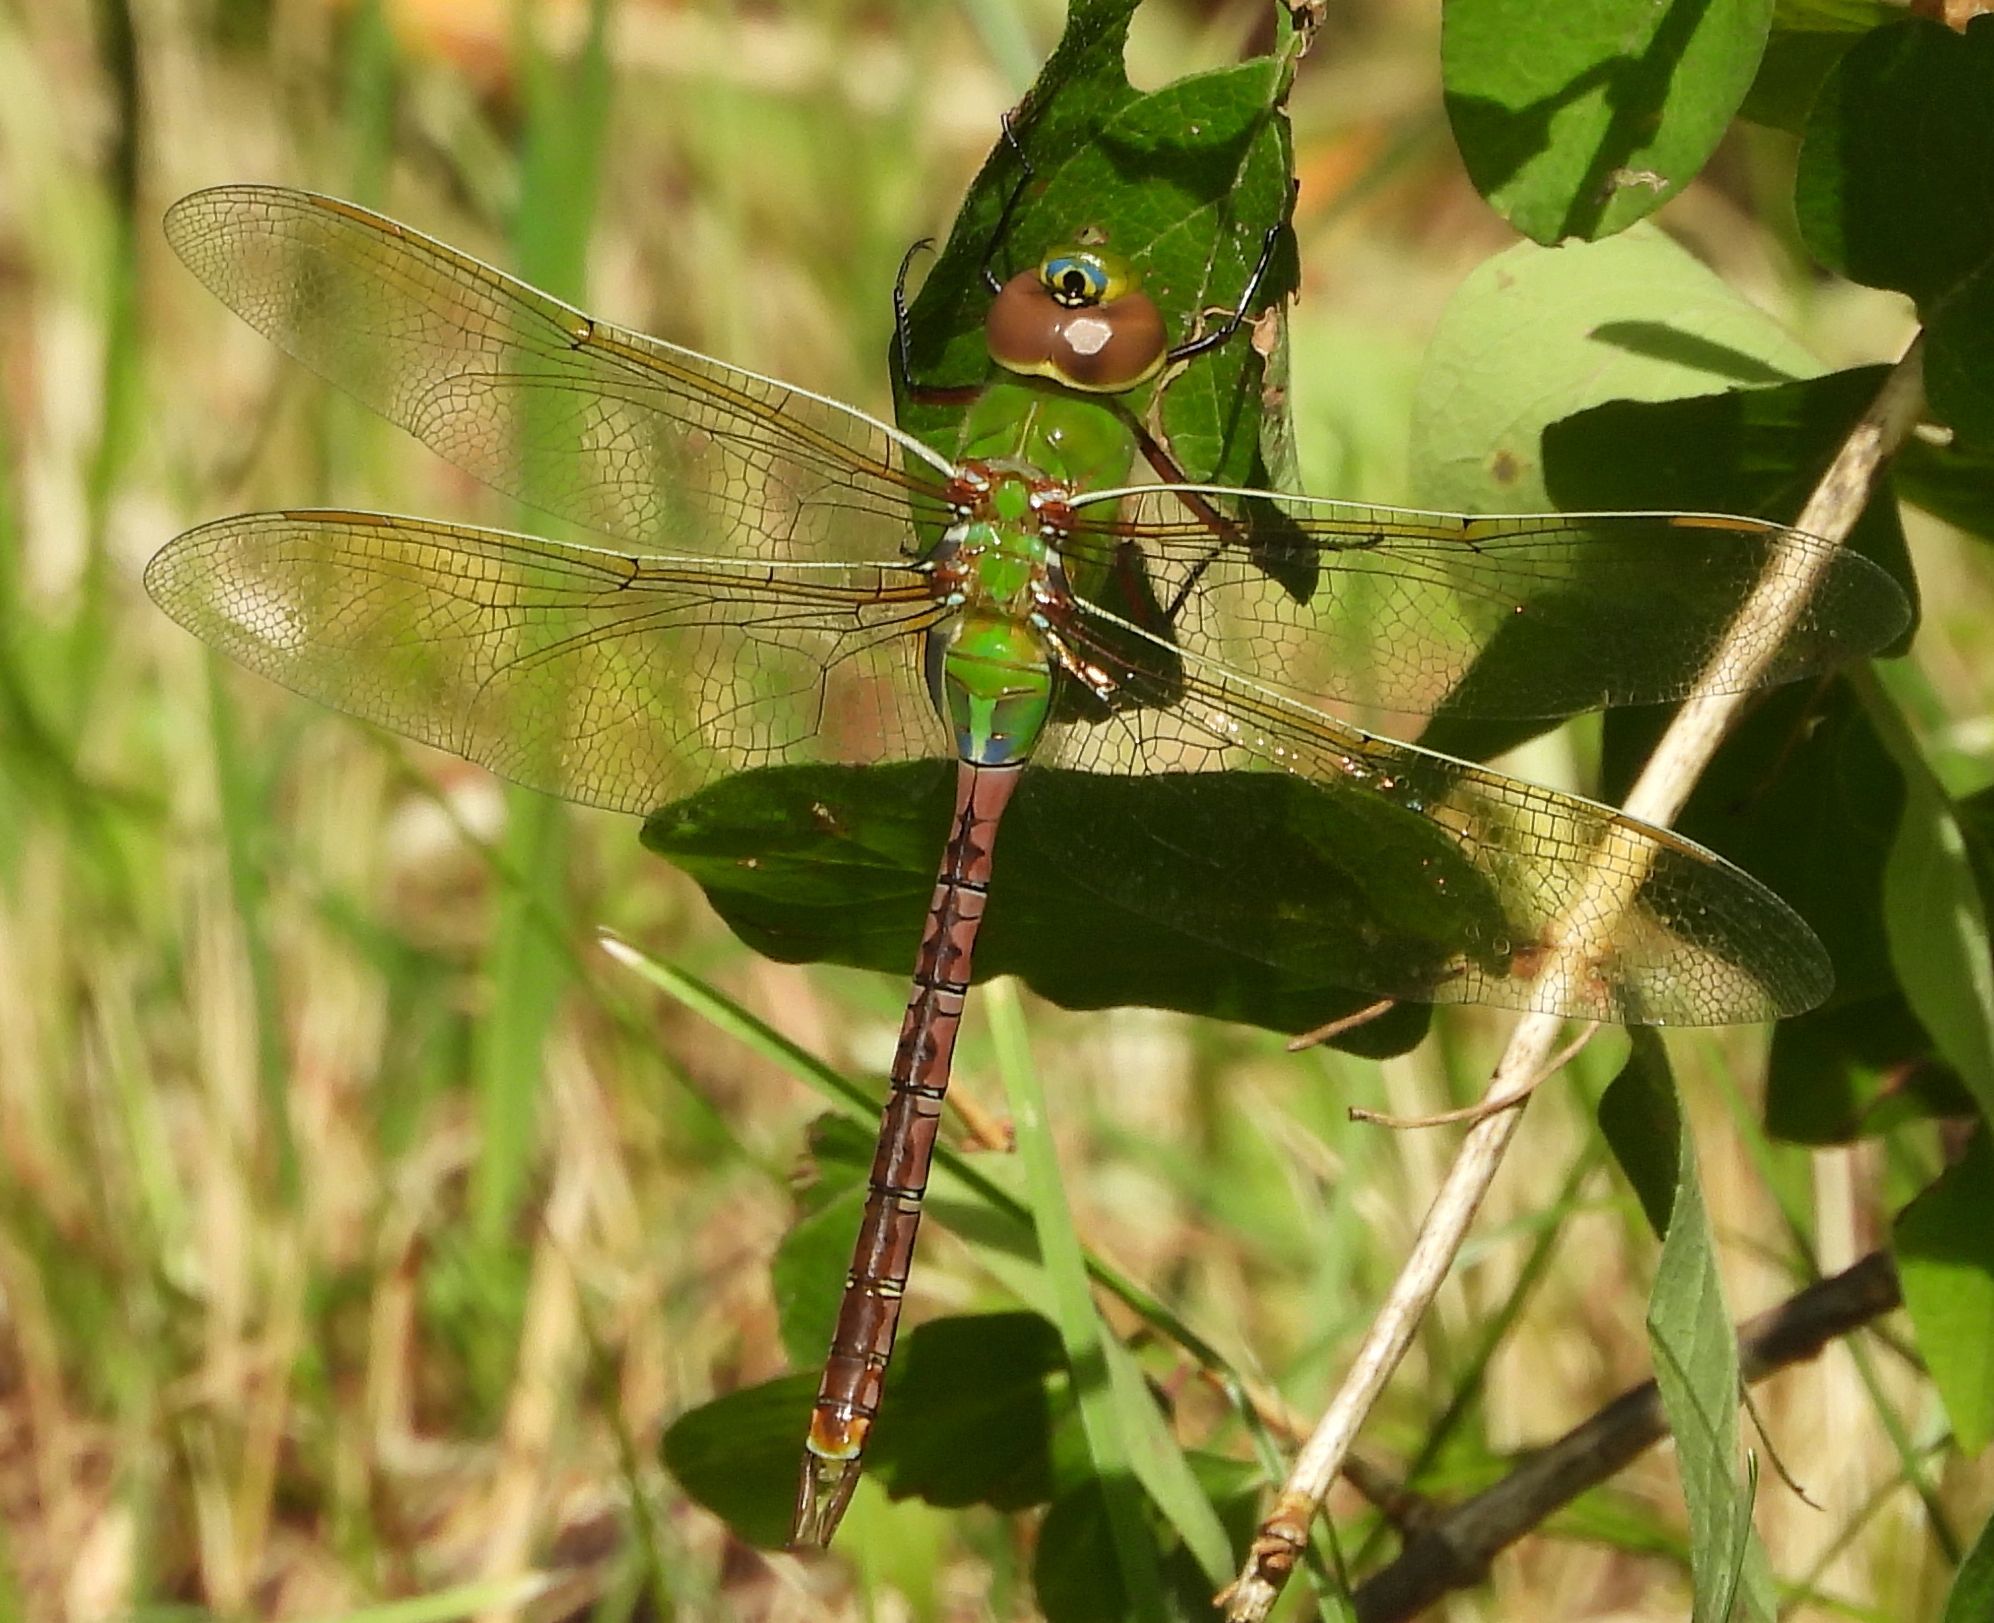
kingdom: Animalia
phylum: Arthropoda
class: Insecta
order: Odonata
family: Aeshnidae
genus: Anax
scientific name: Anax junius
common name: Common green darner
